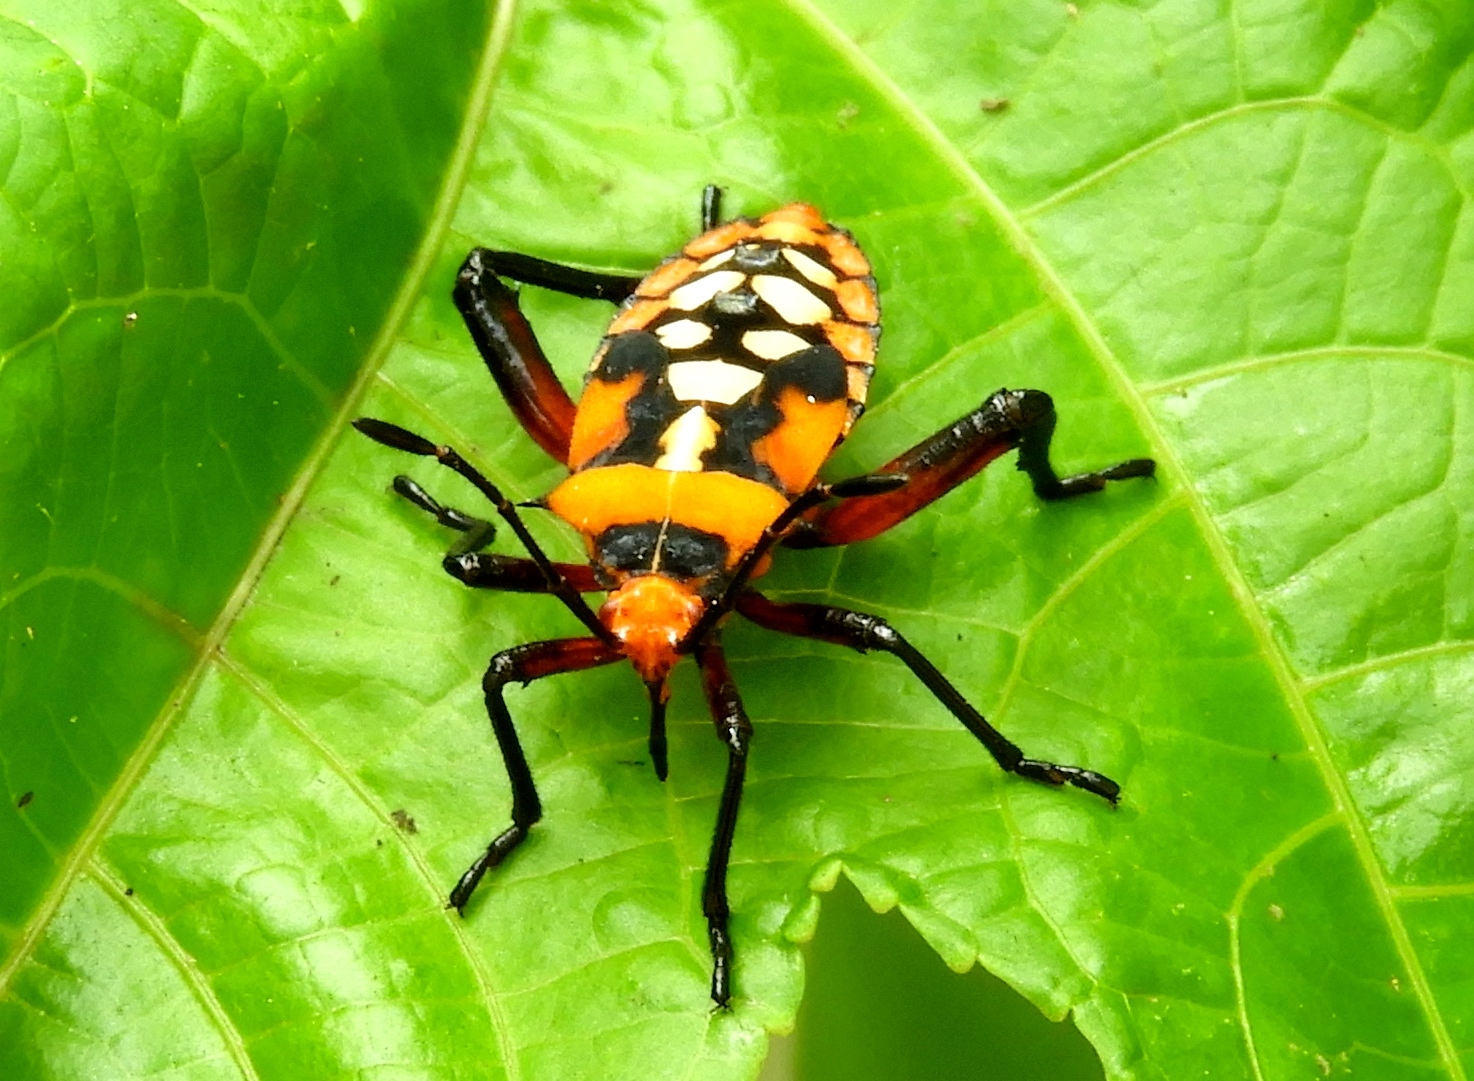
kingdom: Animalia
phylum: Arthropoda
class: Insecta
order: Hemiptera
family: Coreidae
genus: Sagotylus
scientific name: Sagotylus confluens
